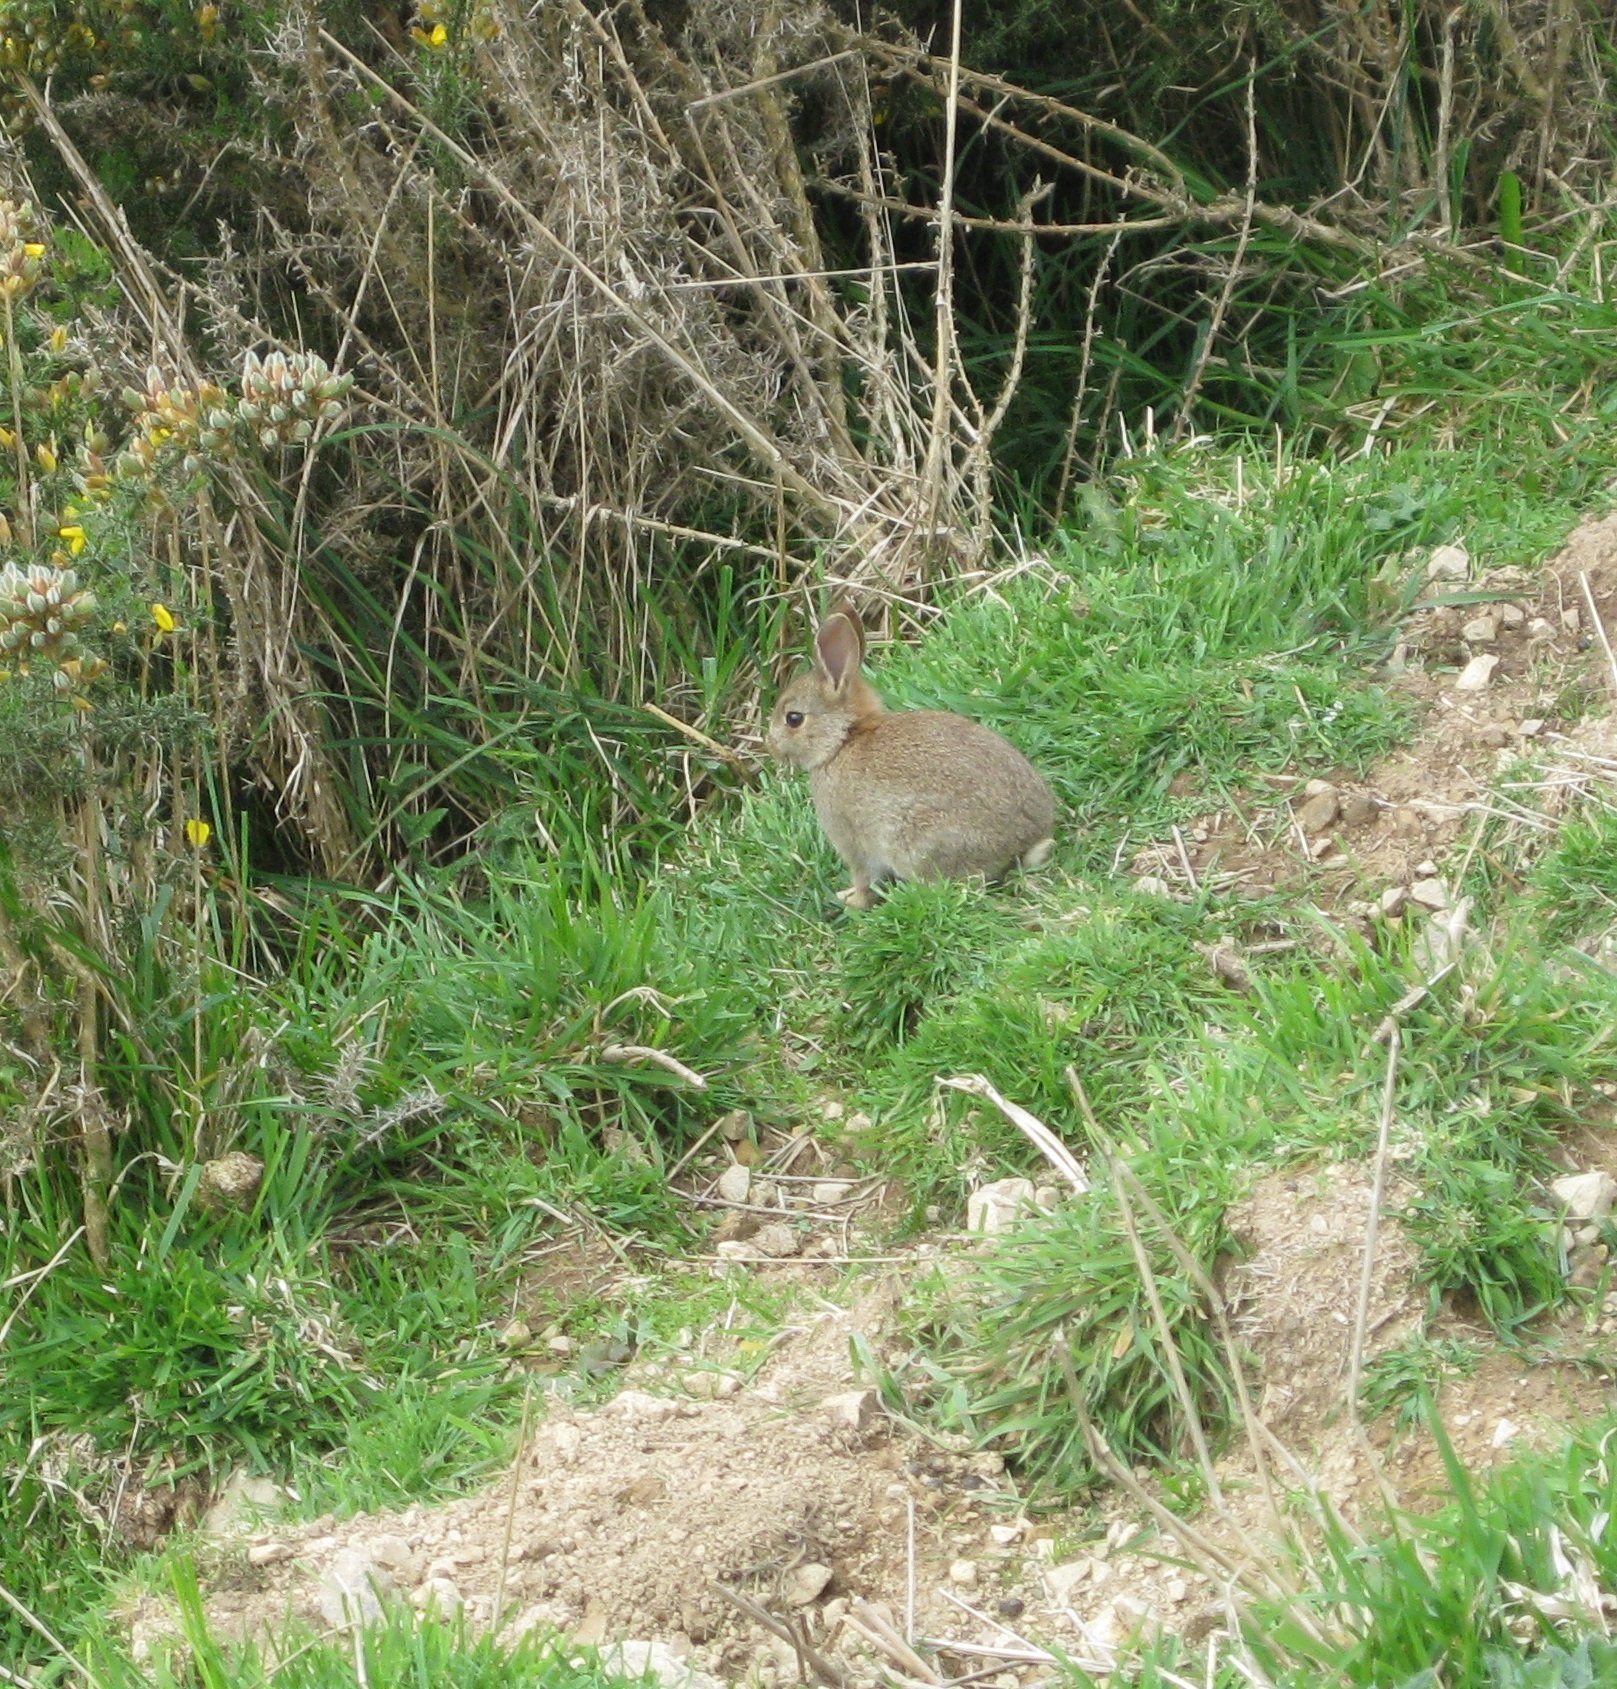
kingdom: Animalia
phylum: Chordata
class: Mammalia
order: Lagomorpha
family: Leporidae
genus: Oryctolagus
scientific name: Oryctolagus cuniculus
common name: European rabbit
